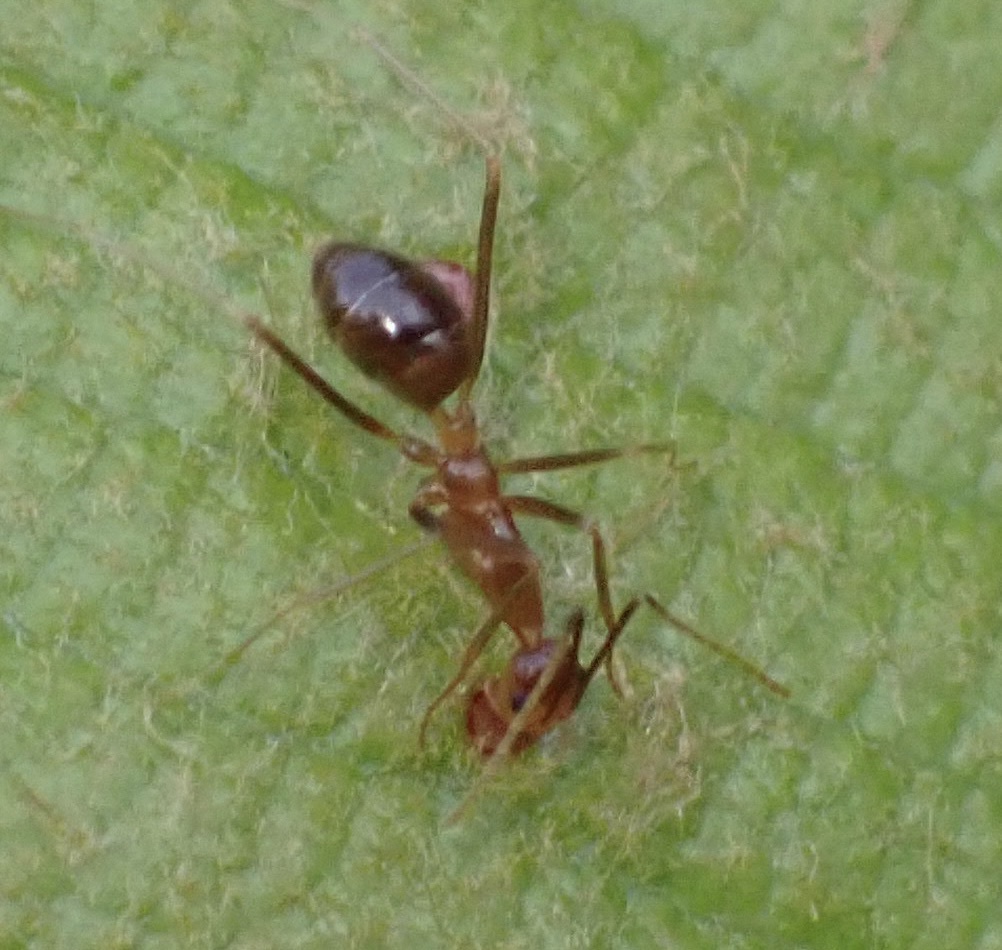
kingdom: Animalia
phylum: Arthropoda
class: Insecta
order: Hymenoptera
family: Formicidae
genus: Anoplolepis
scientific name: Anoplolepis gracilipes
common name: Ant
